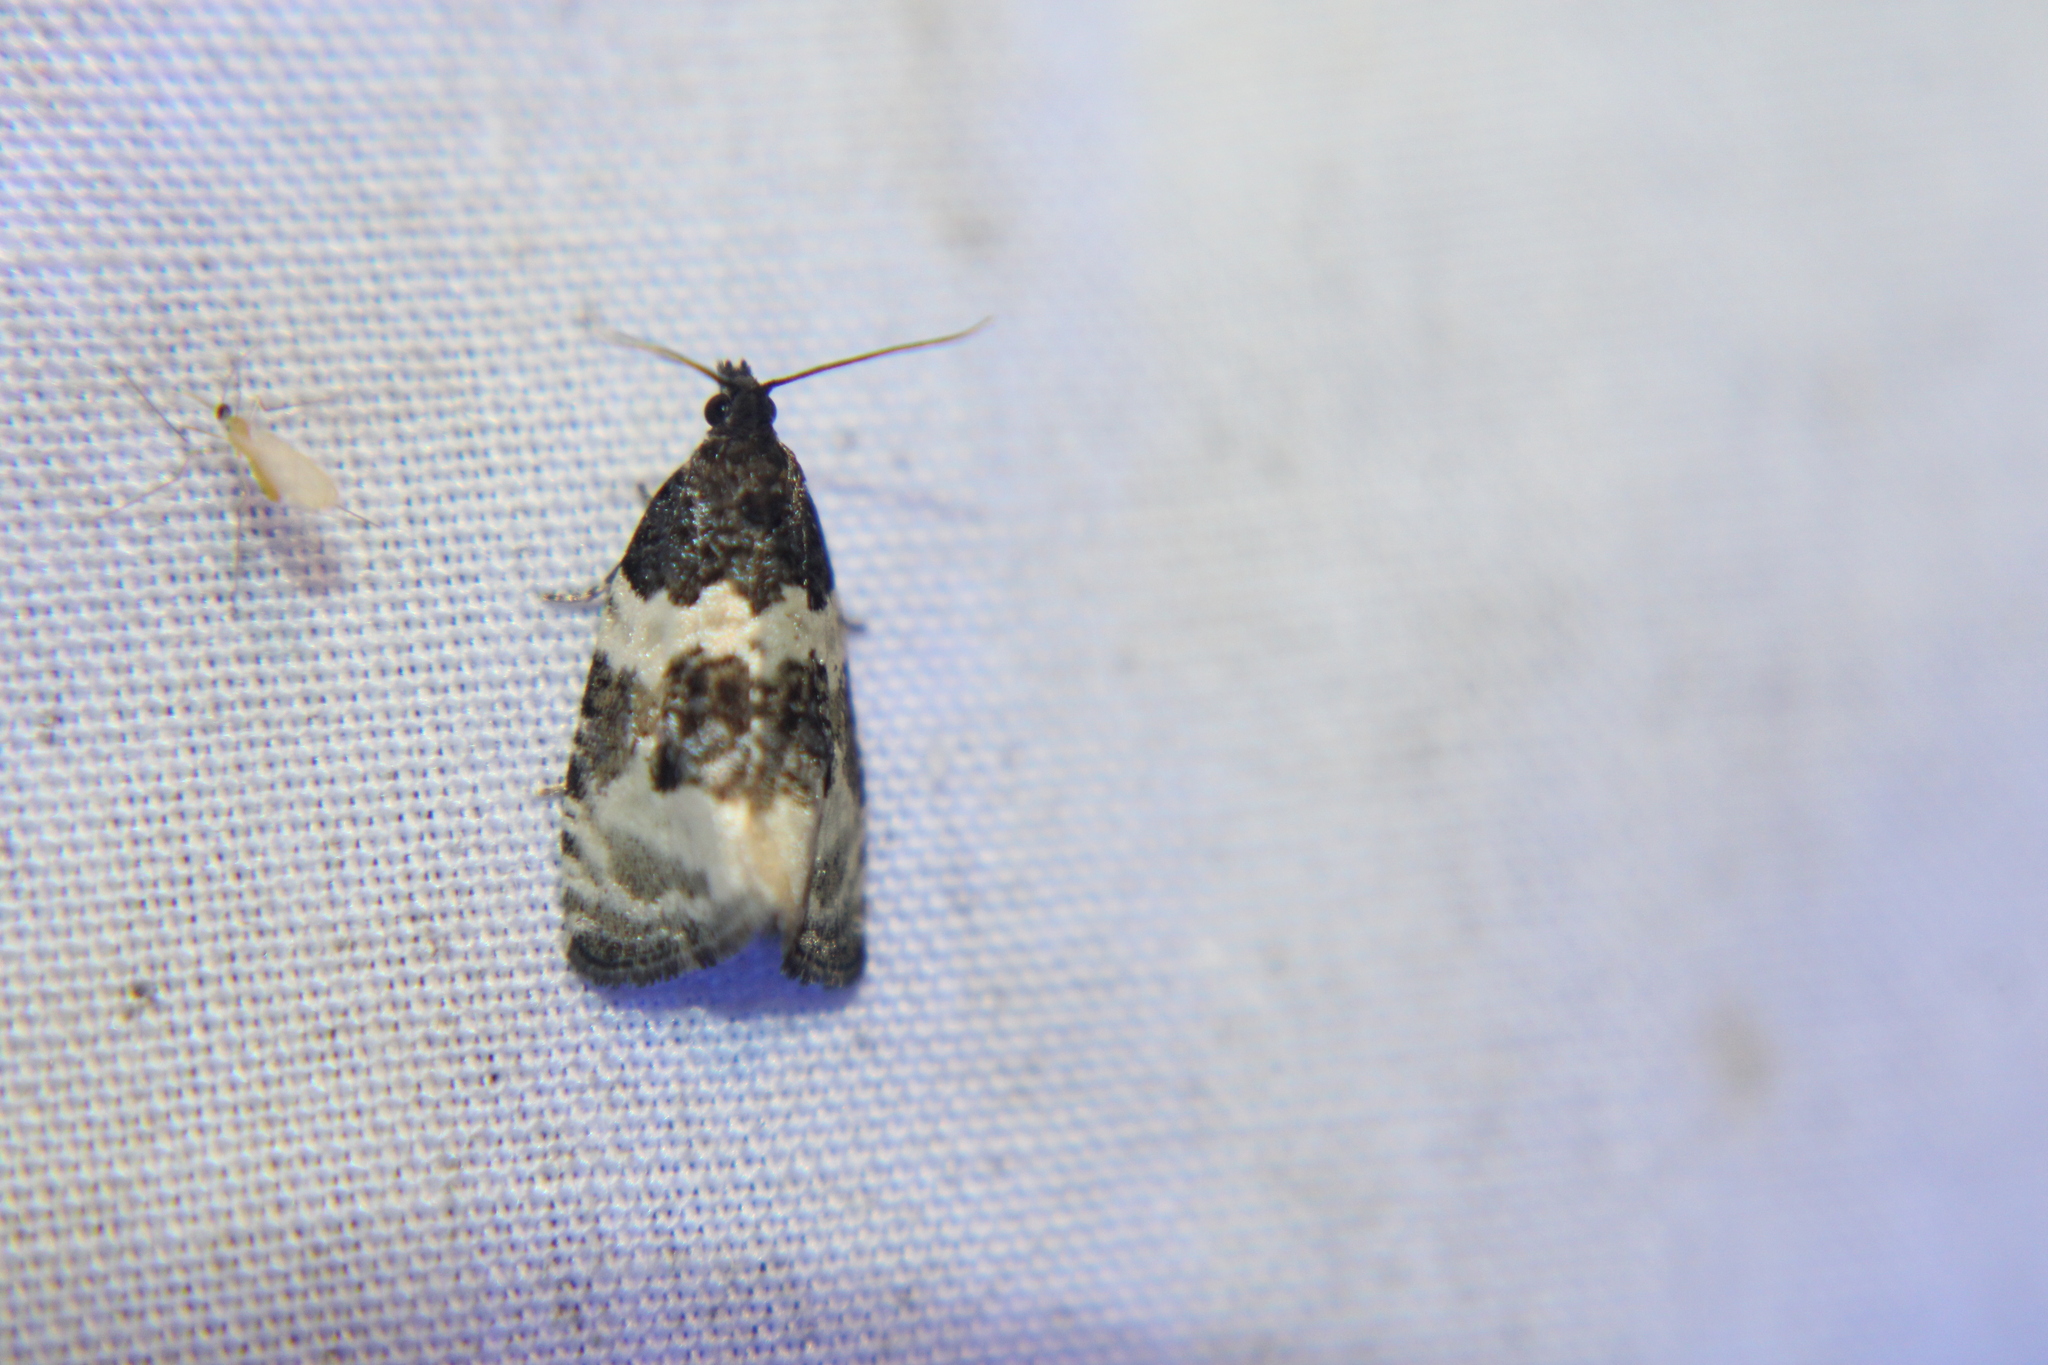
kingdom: Animalia
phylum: Arthropoda
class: Insecta
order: Lepidoptera
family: Tortricidae
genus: Olethreutes
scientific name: Olethreutes fasciatana
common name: Banded olethreutes moth
